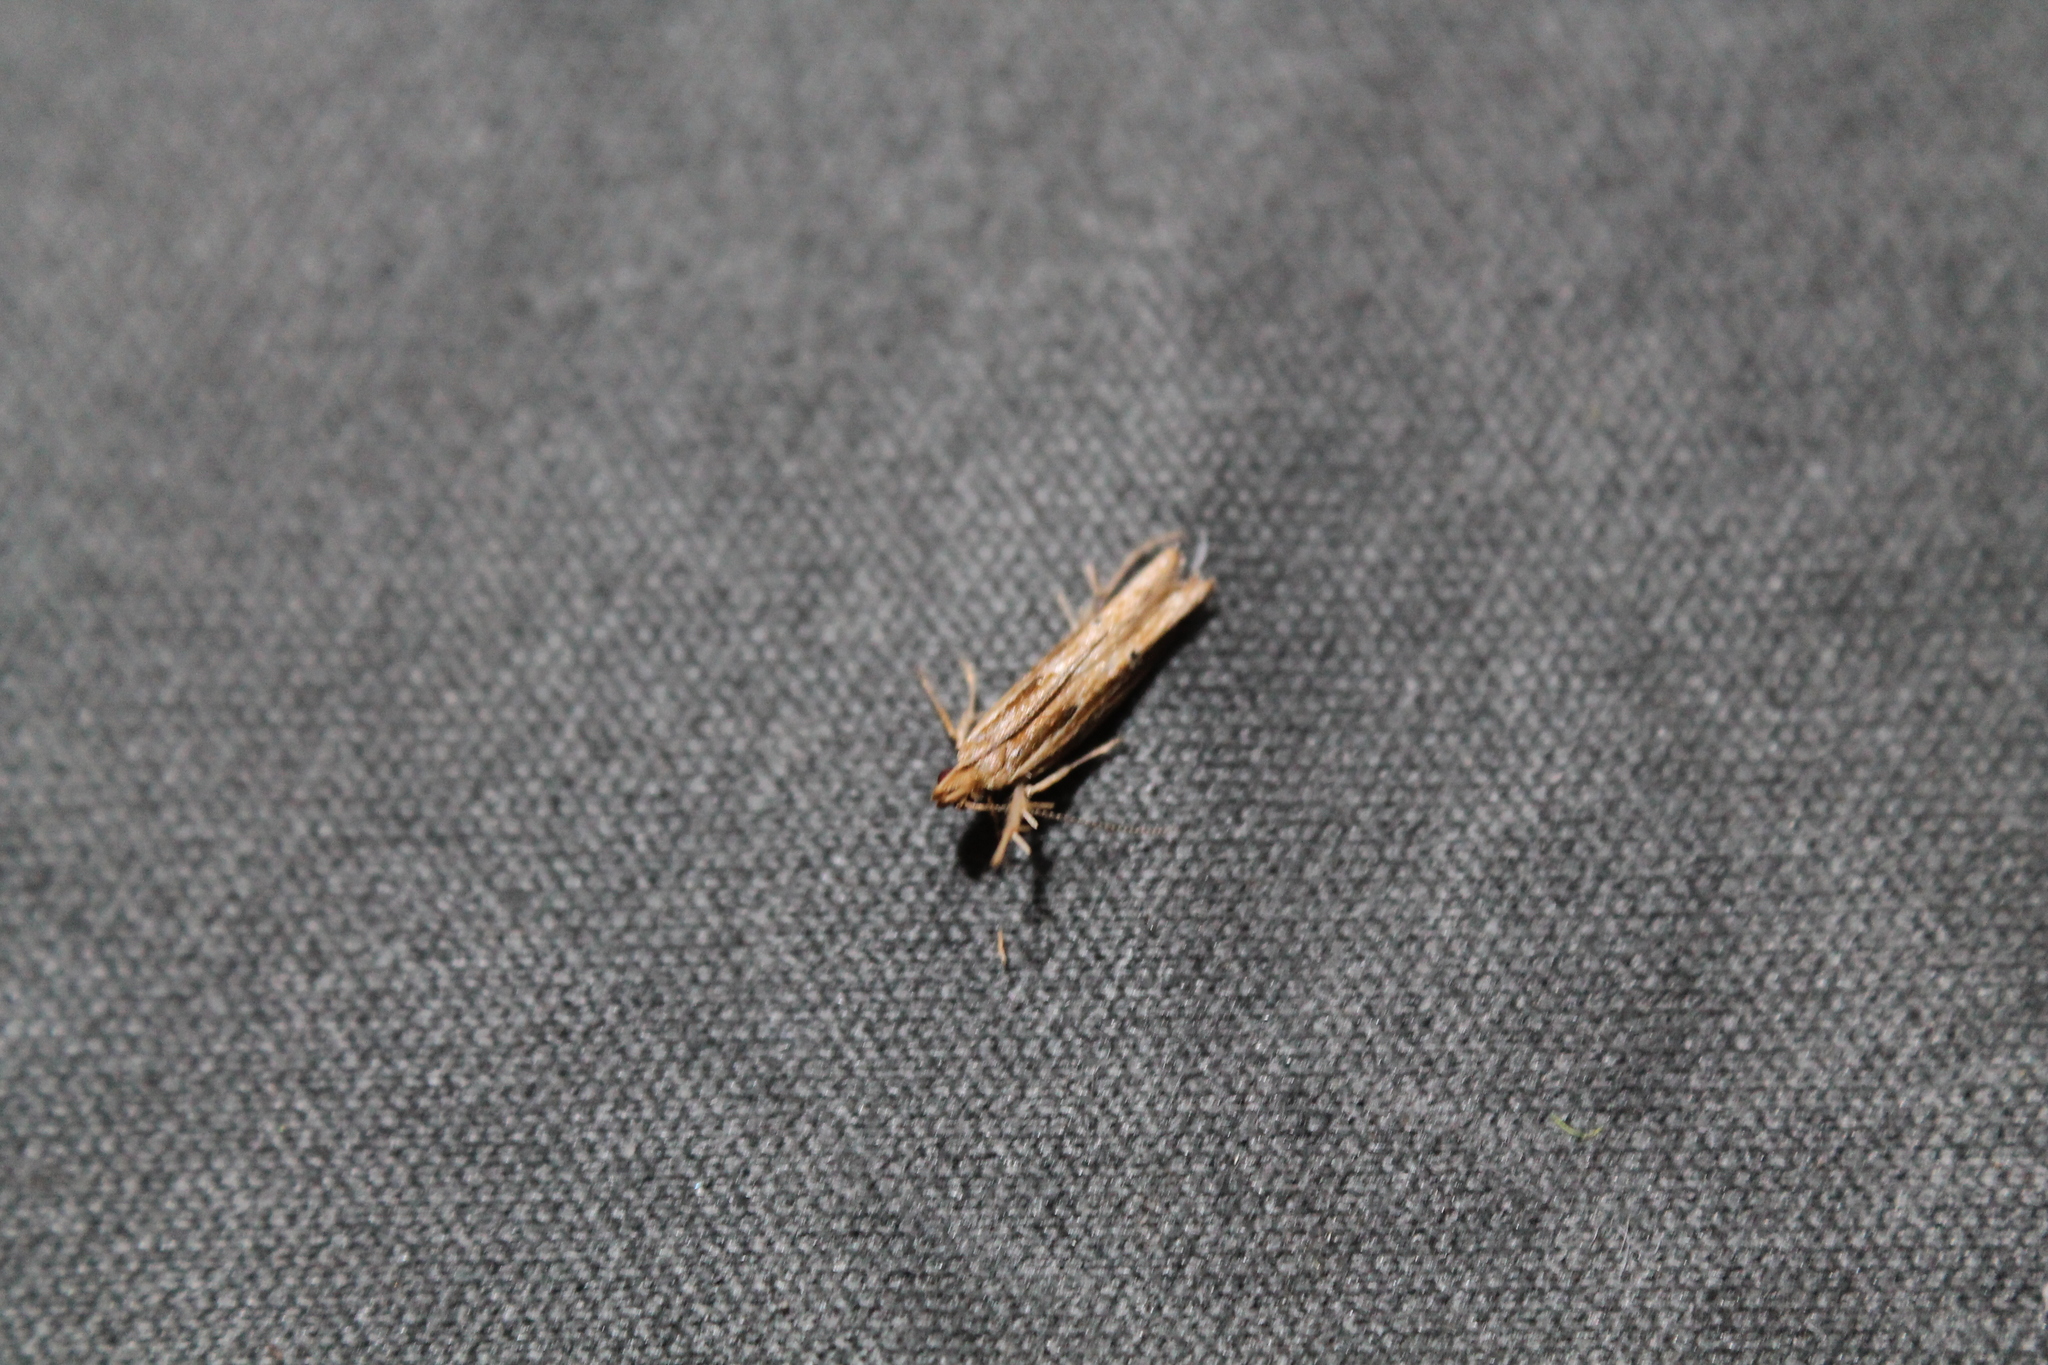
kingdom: Animalia
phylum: Arthropoda
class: Insecta
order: Lepidoptera
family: Depressariidae
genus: Eutorna
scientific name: Eutorna symmorpha
